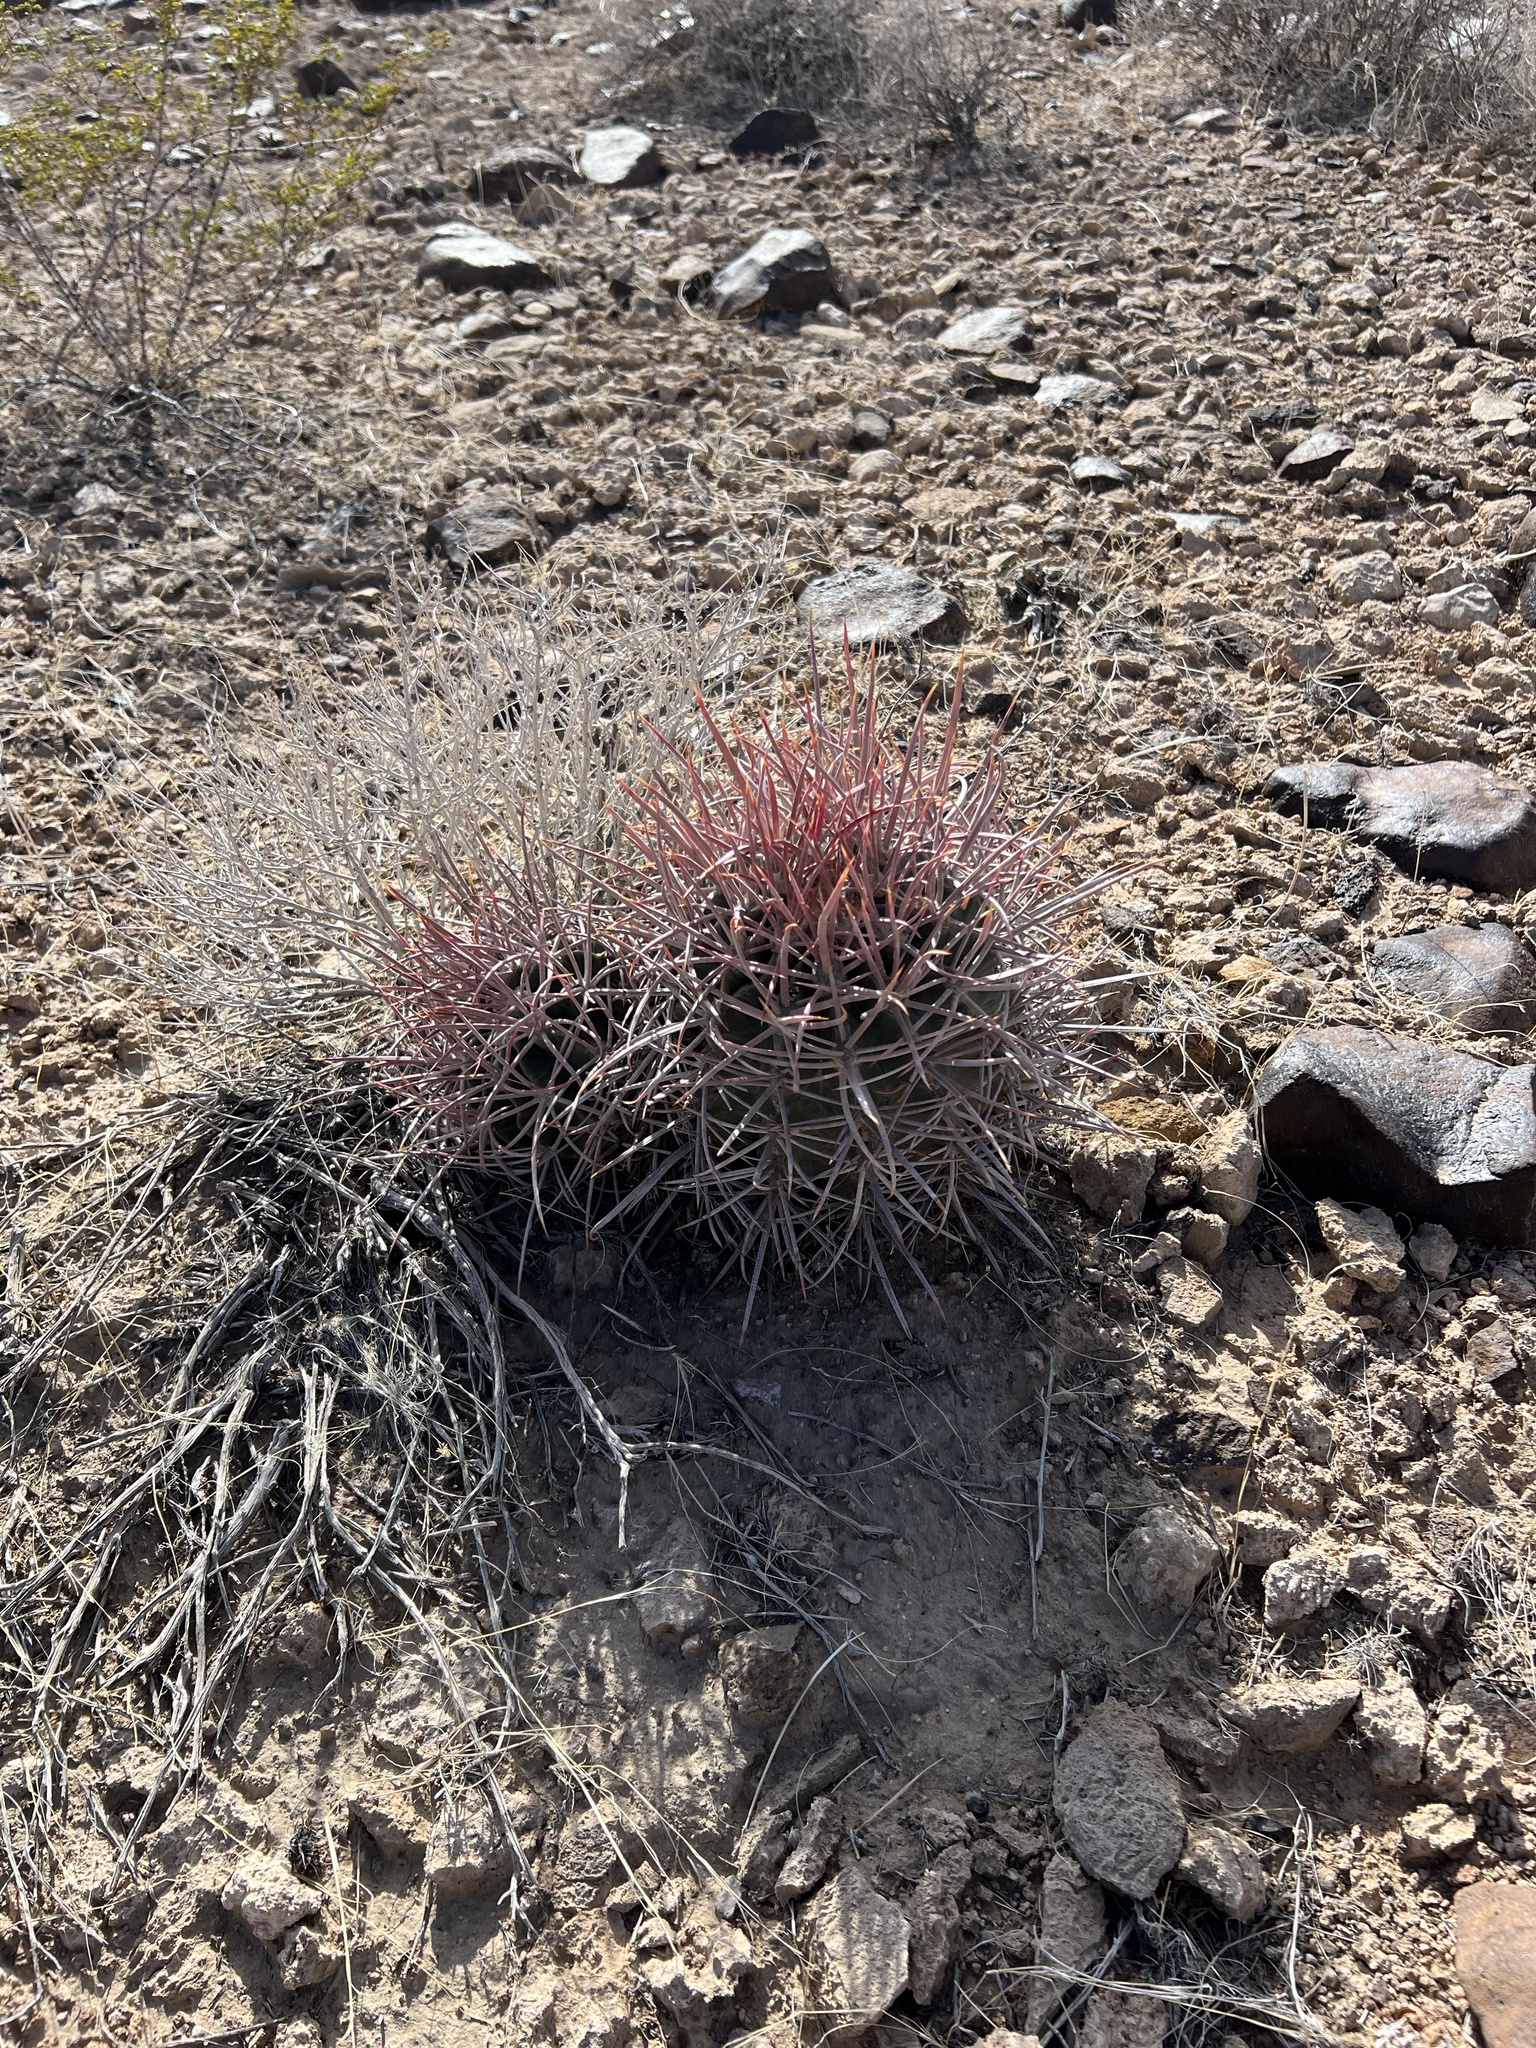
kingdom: Plantae
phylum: Tracheophyta
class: Magnoliopsida
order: Caryophyllales
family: Cactaceae
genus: Echinocactus
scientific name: Echinocactus polycephalus
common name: Cottontop cactus
